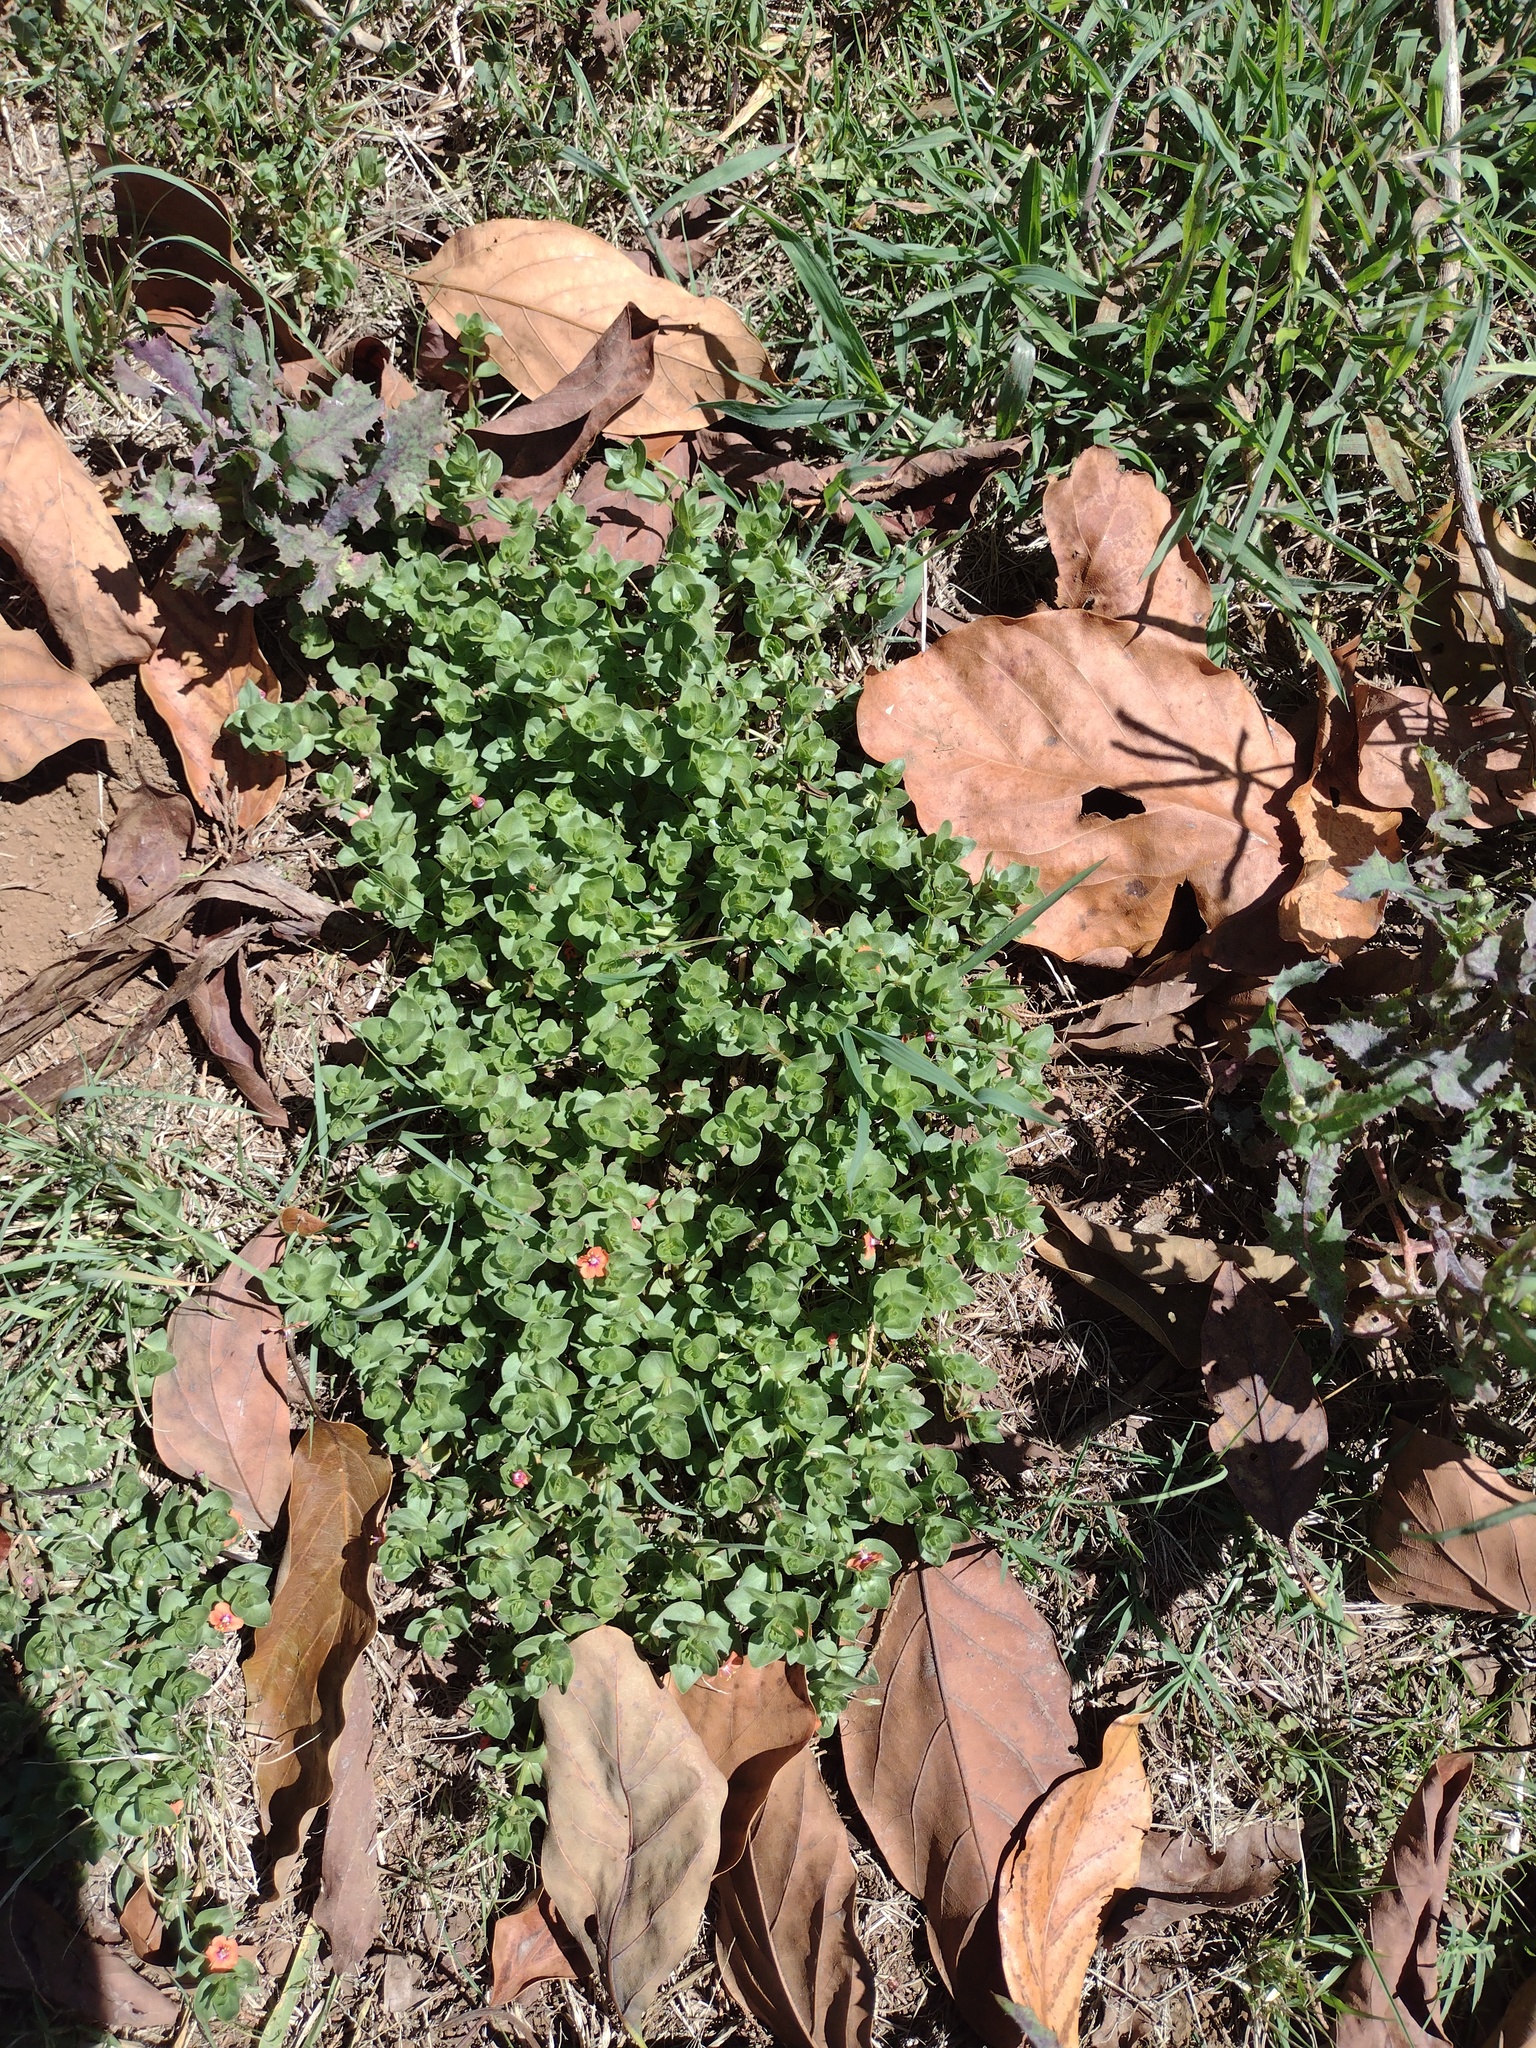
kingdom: Plantae
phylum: Tracheophyta
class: Magnoliopsida
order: Ericales
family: Primulaceae
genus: Lysimachia
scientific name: Lysimachia arvensis
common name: Scarlet pimpernel
